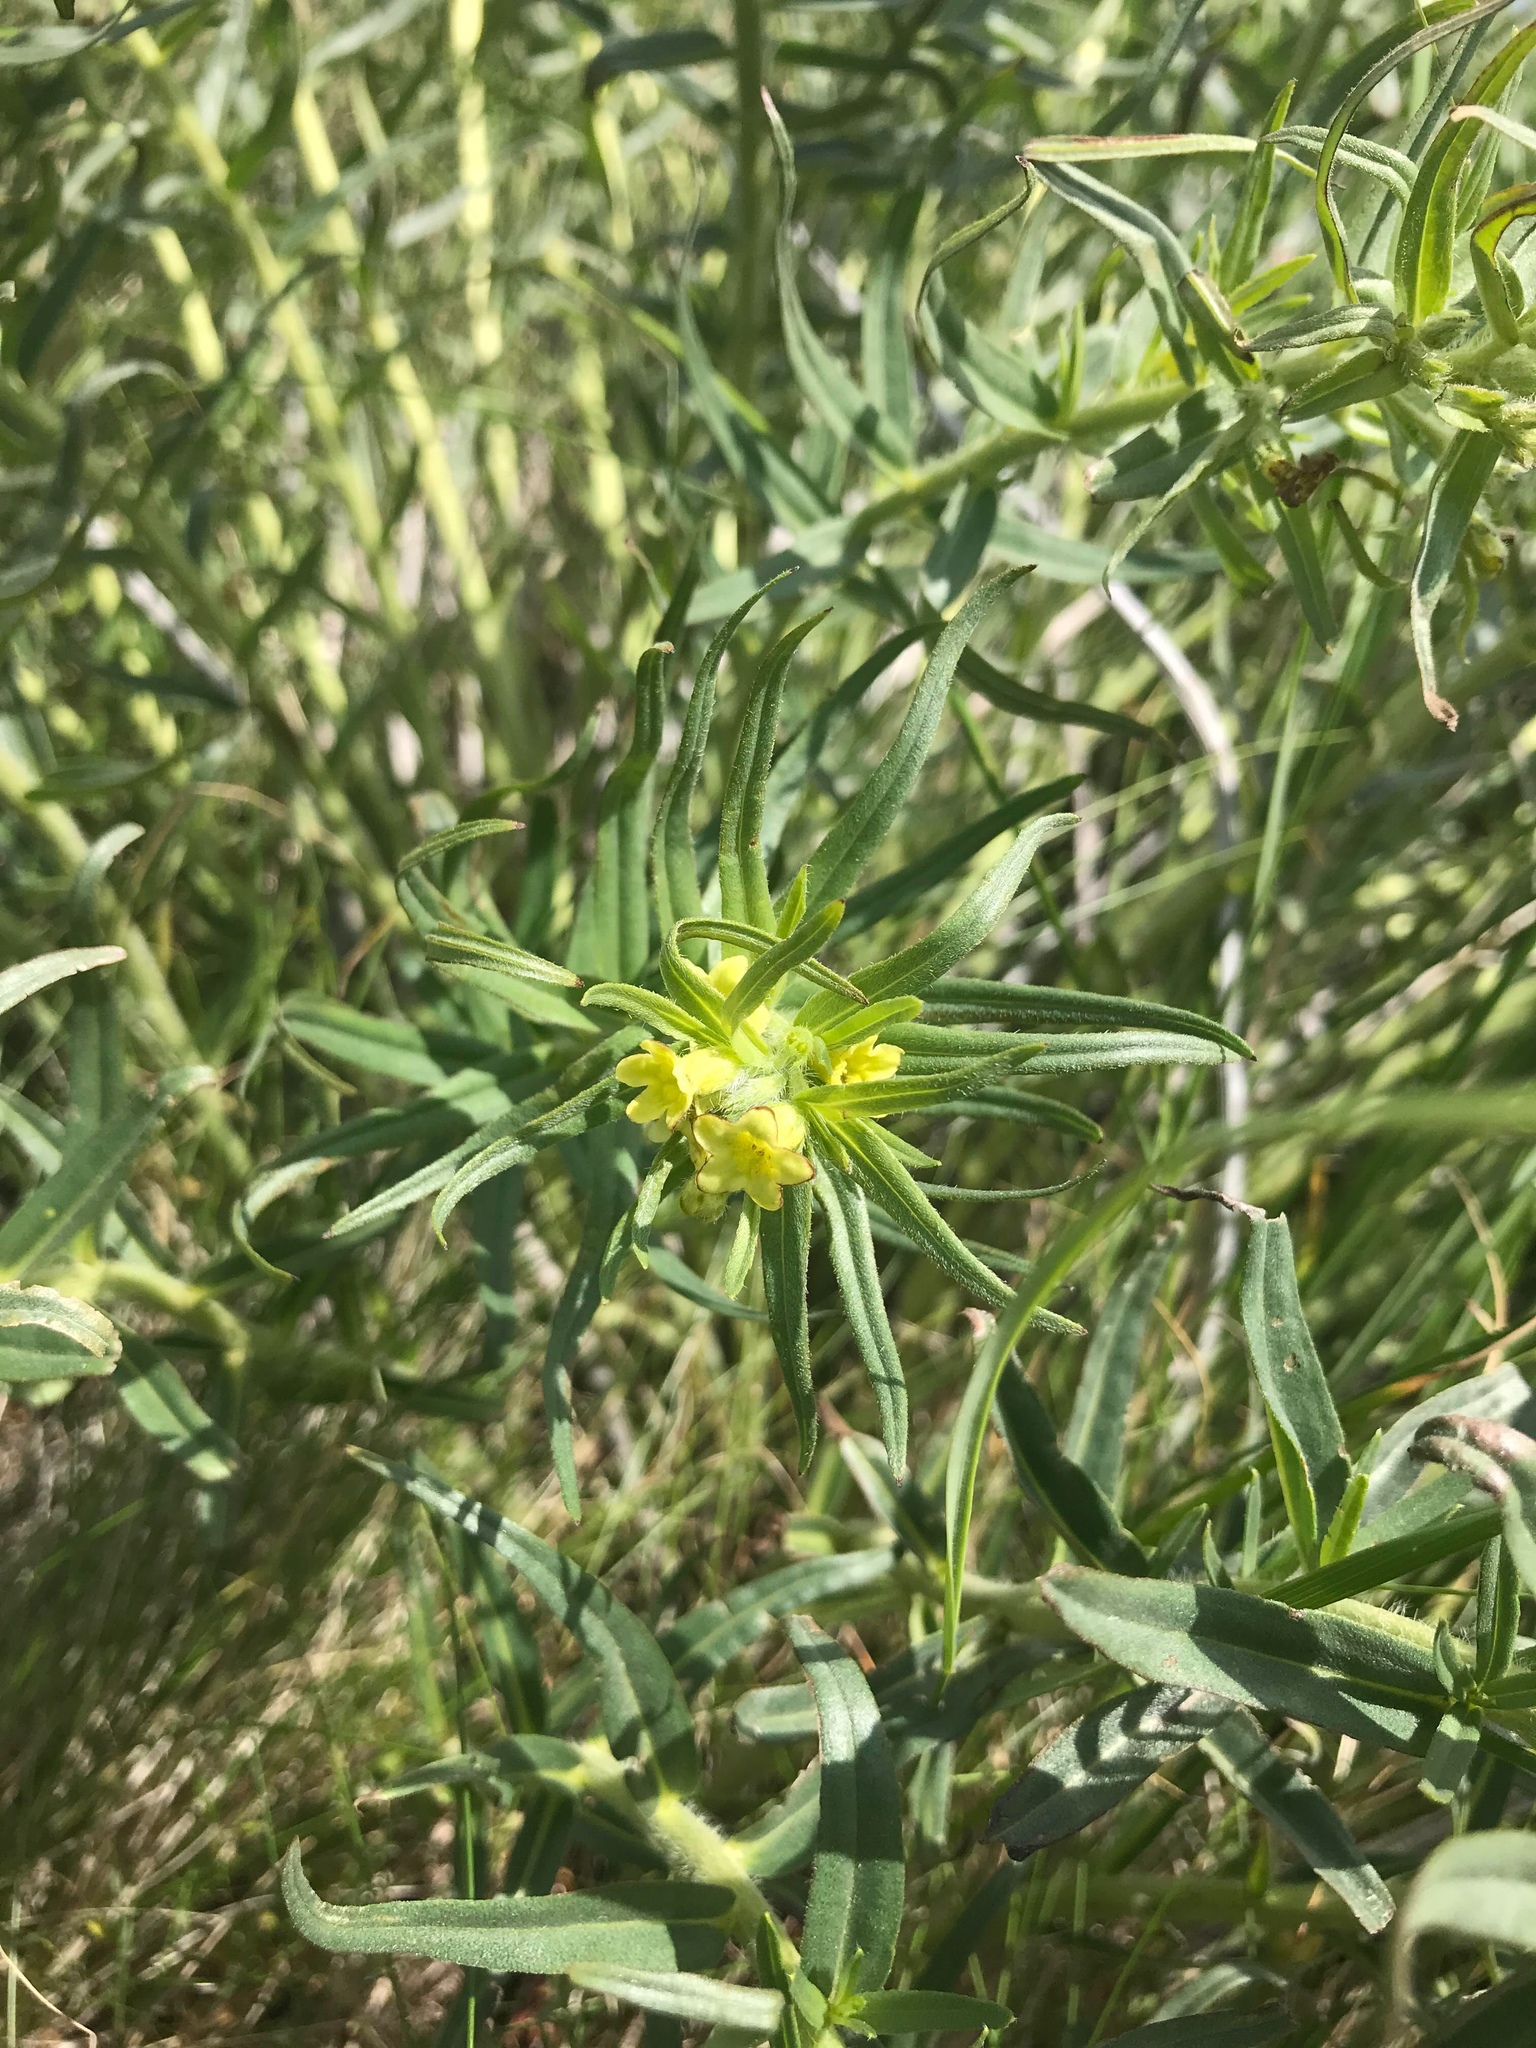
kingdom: Plantae
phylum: Tracheophyta
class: Magnoliopsida
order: Boraginales
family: Boraginaceae
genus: Lithospermum
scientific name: Lithospermum ruderale
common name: Western gromwell
